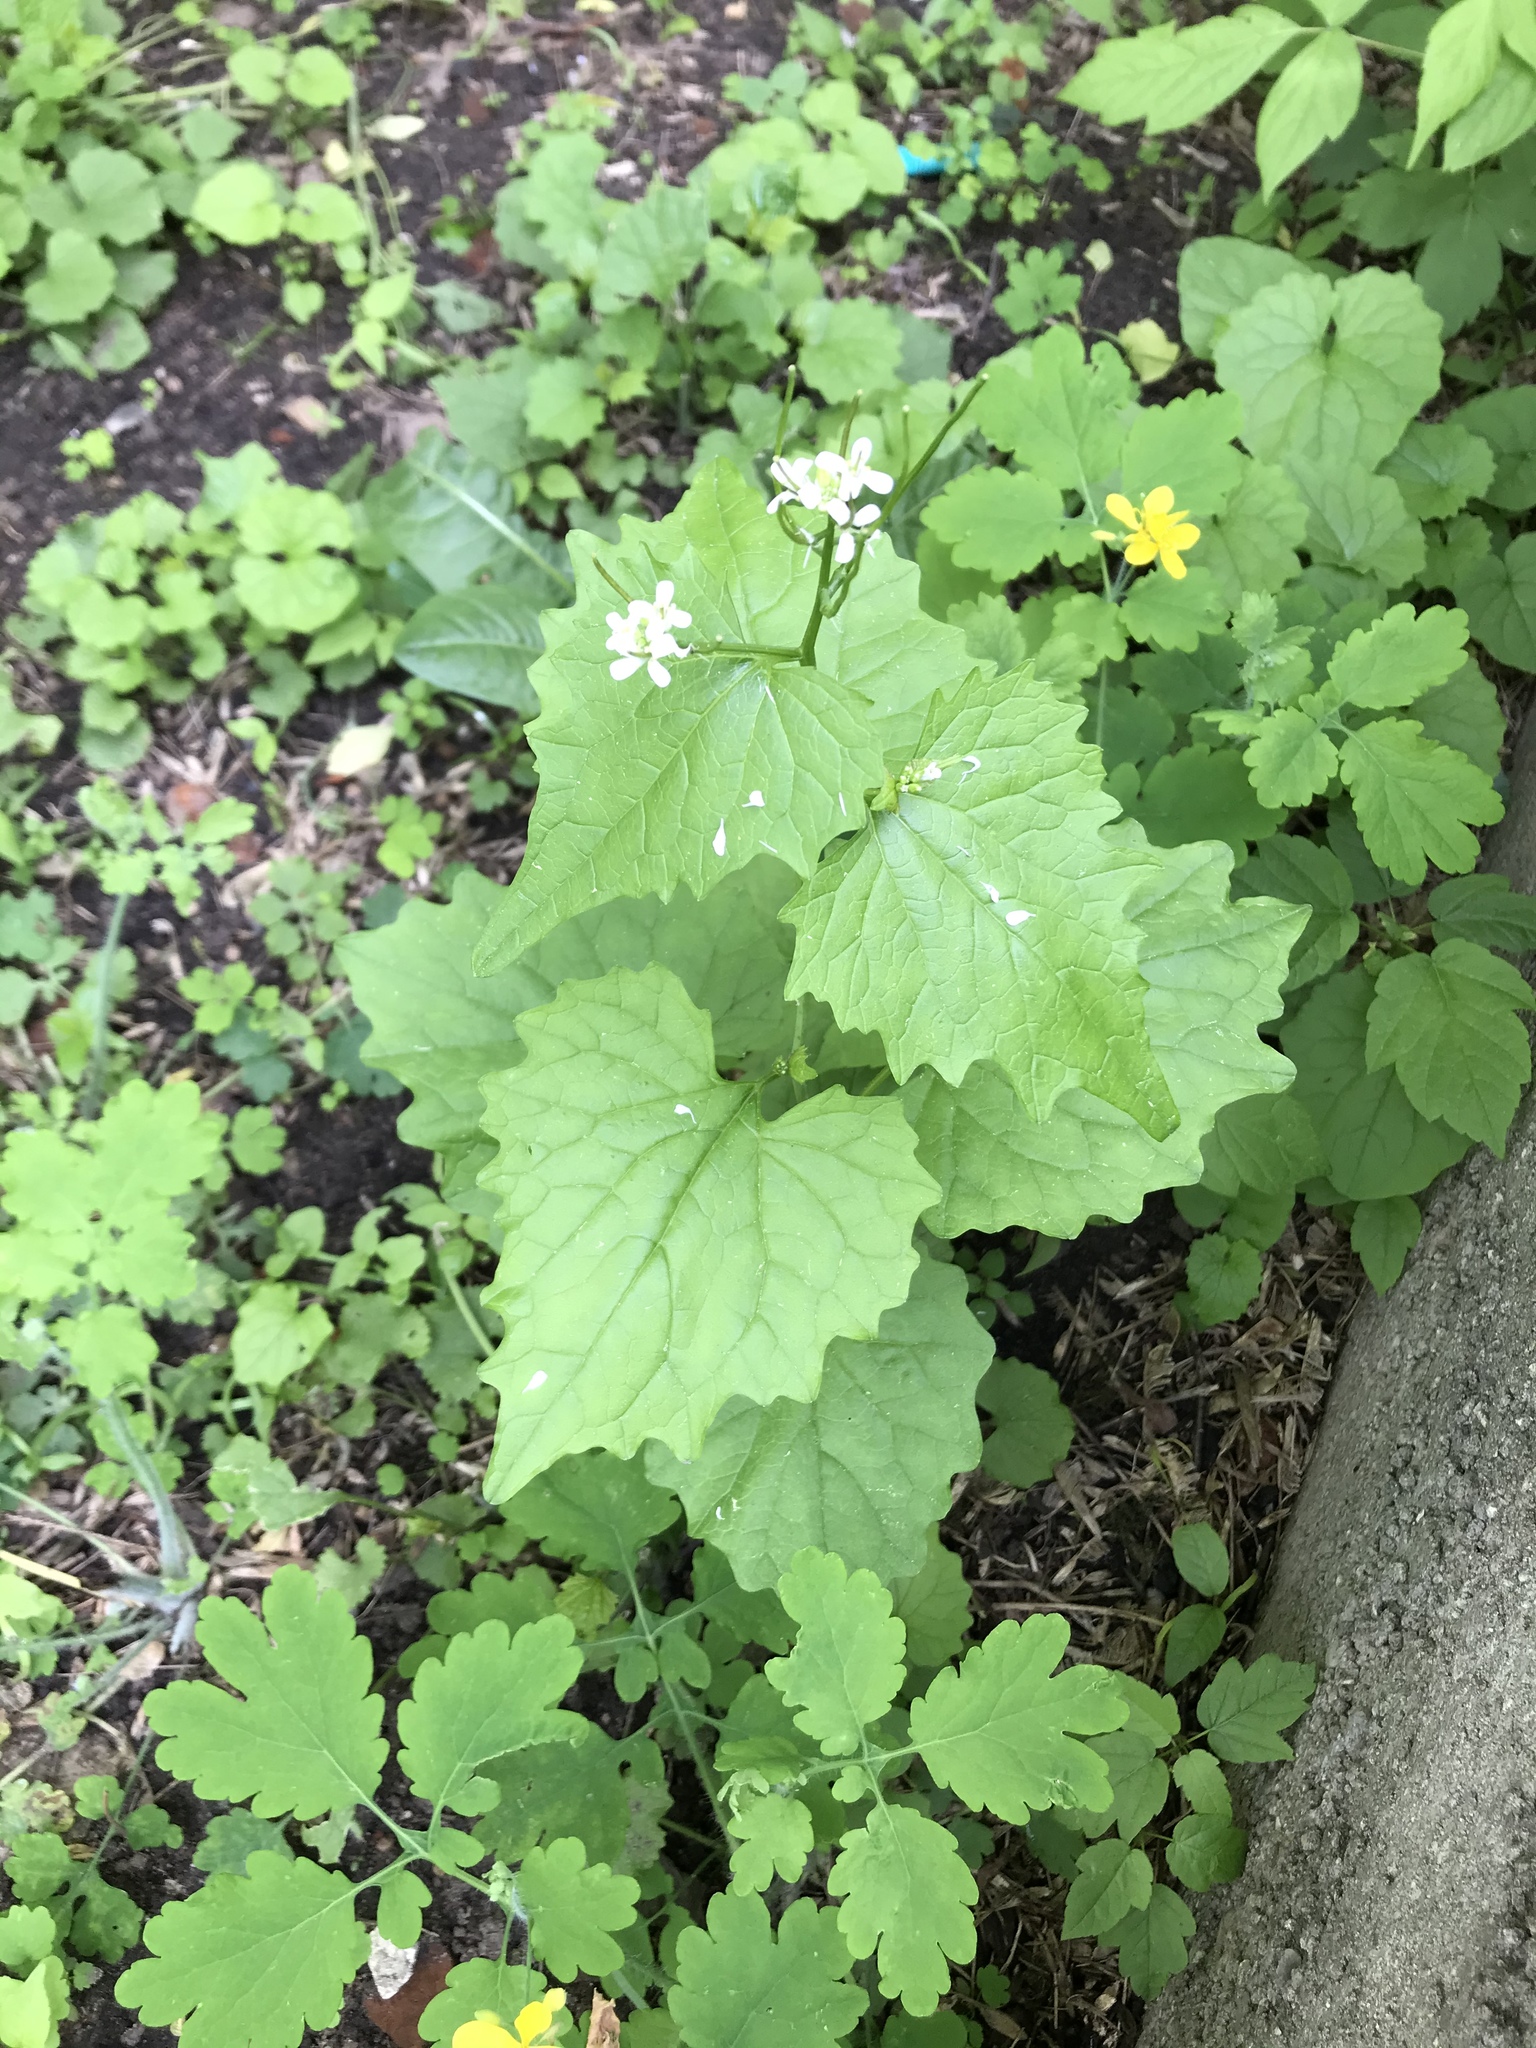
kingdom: Plantae
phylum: Tracheophyta
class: Magnoliopsida
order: Brassicales
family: Brassicaceae
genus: Alliaria
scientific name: Alliaria petiolata
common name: Garlic mustard
